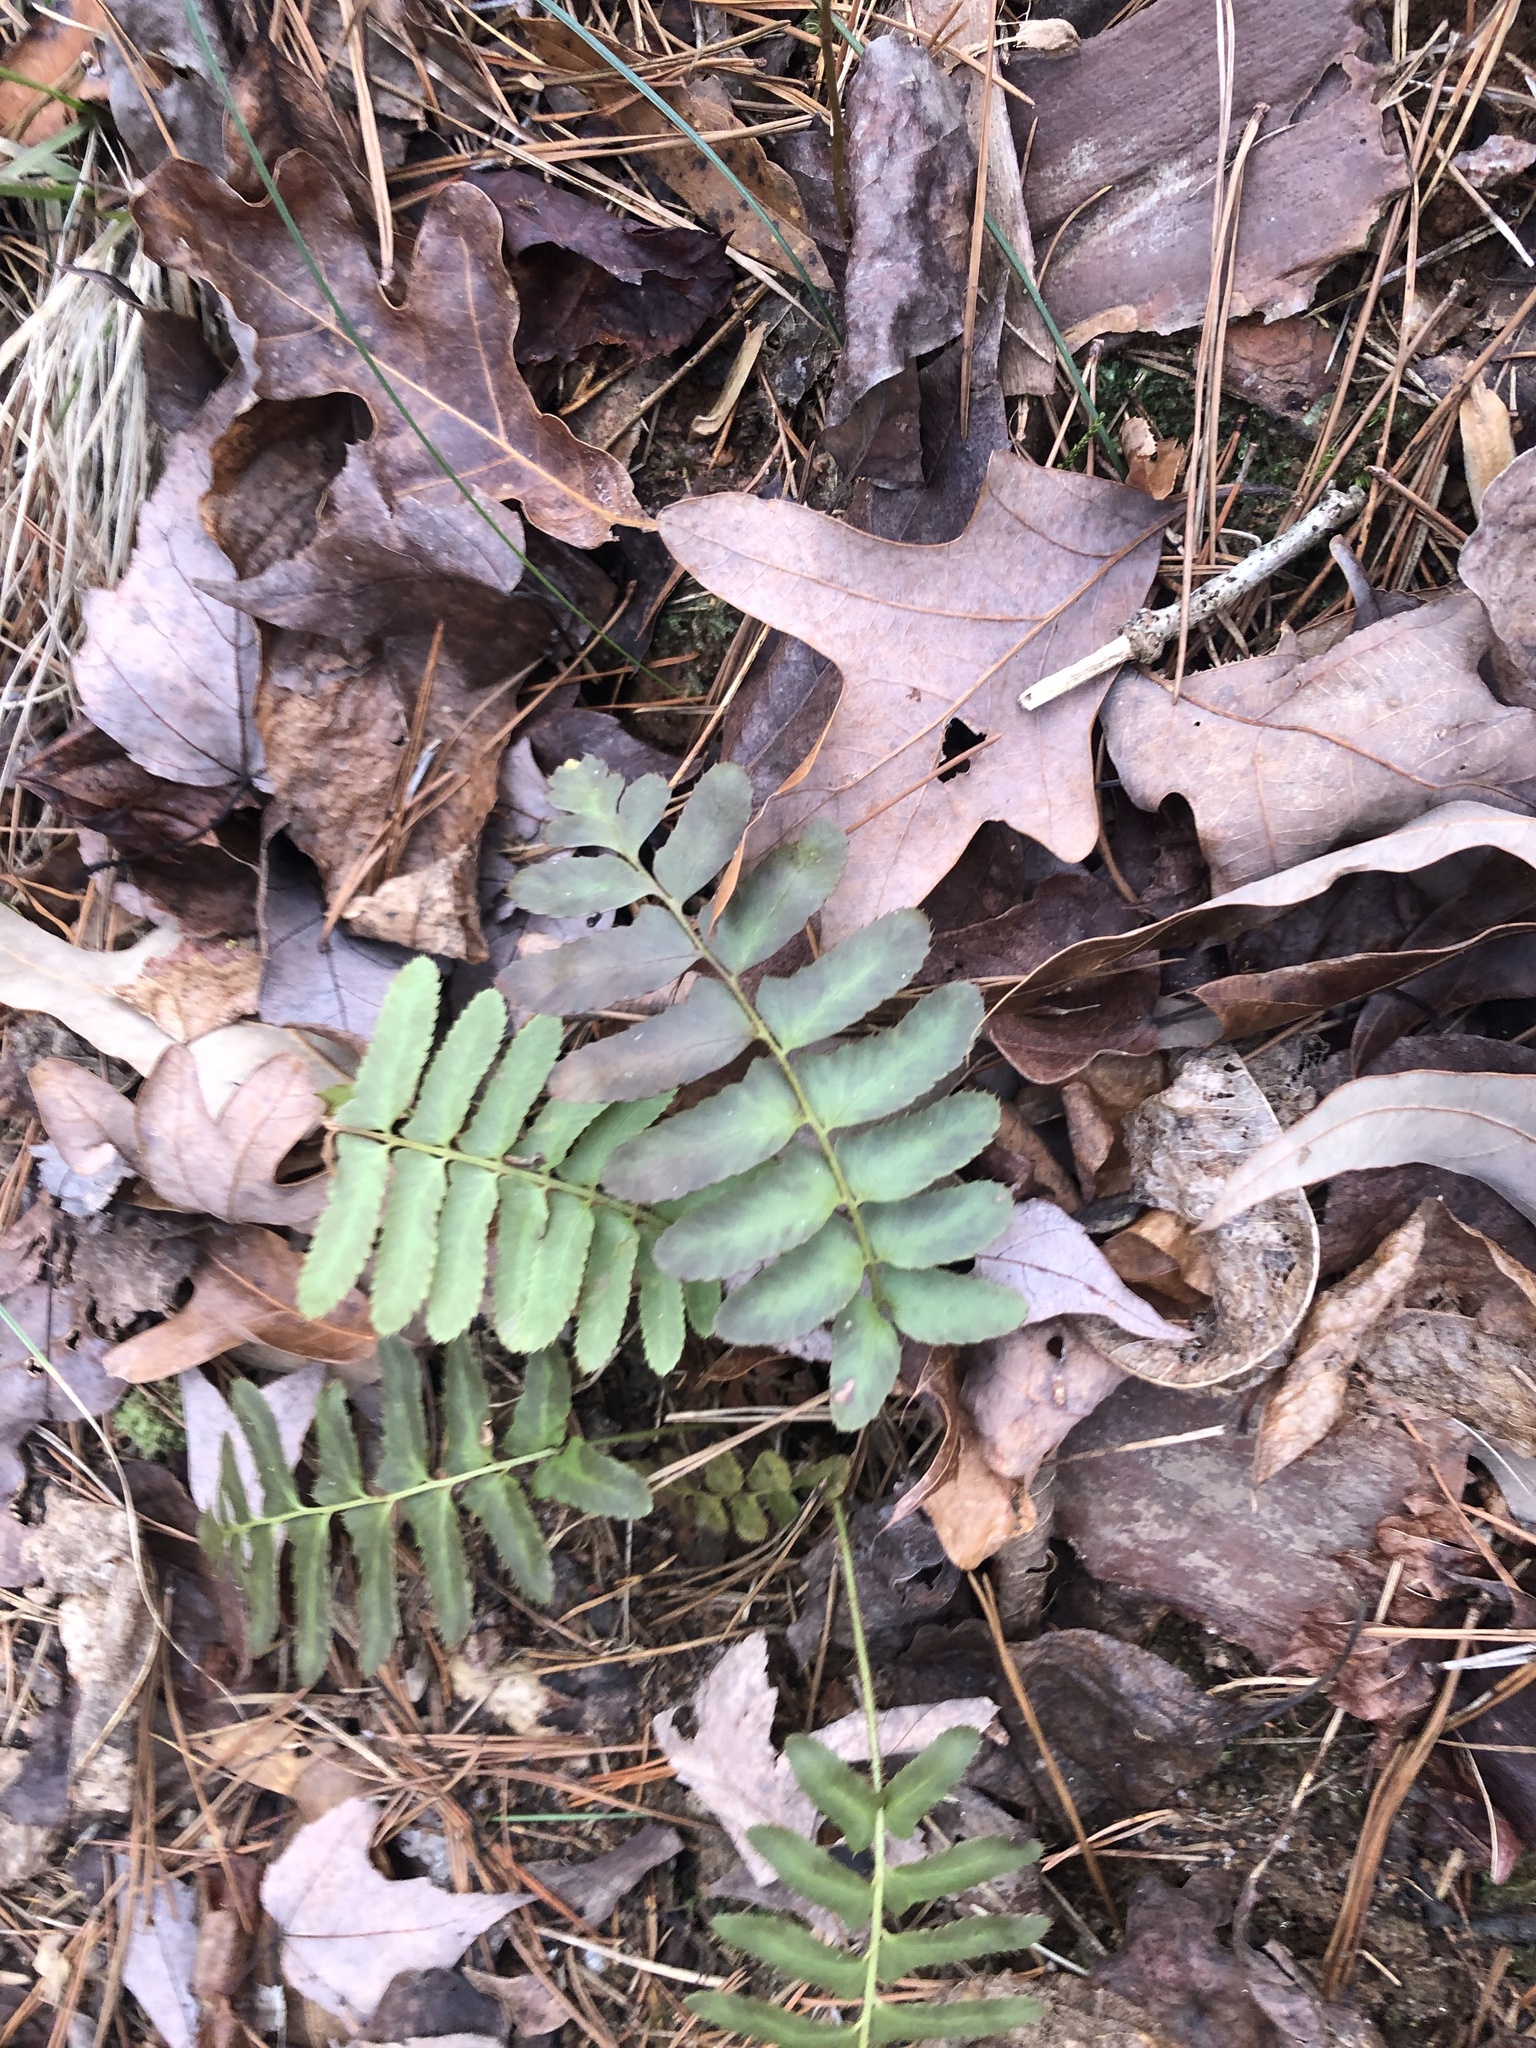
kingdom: Plantae
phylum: Tracheophyta
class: Polypodiopsida
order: Polypodiales
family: Dryopteridaceae
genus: Polystichum
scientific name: Polystichum acrostichoides
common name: Christmas fern
